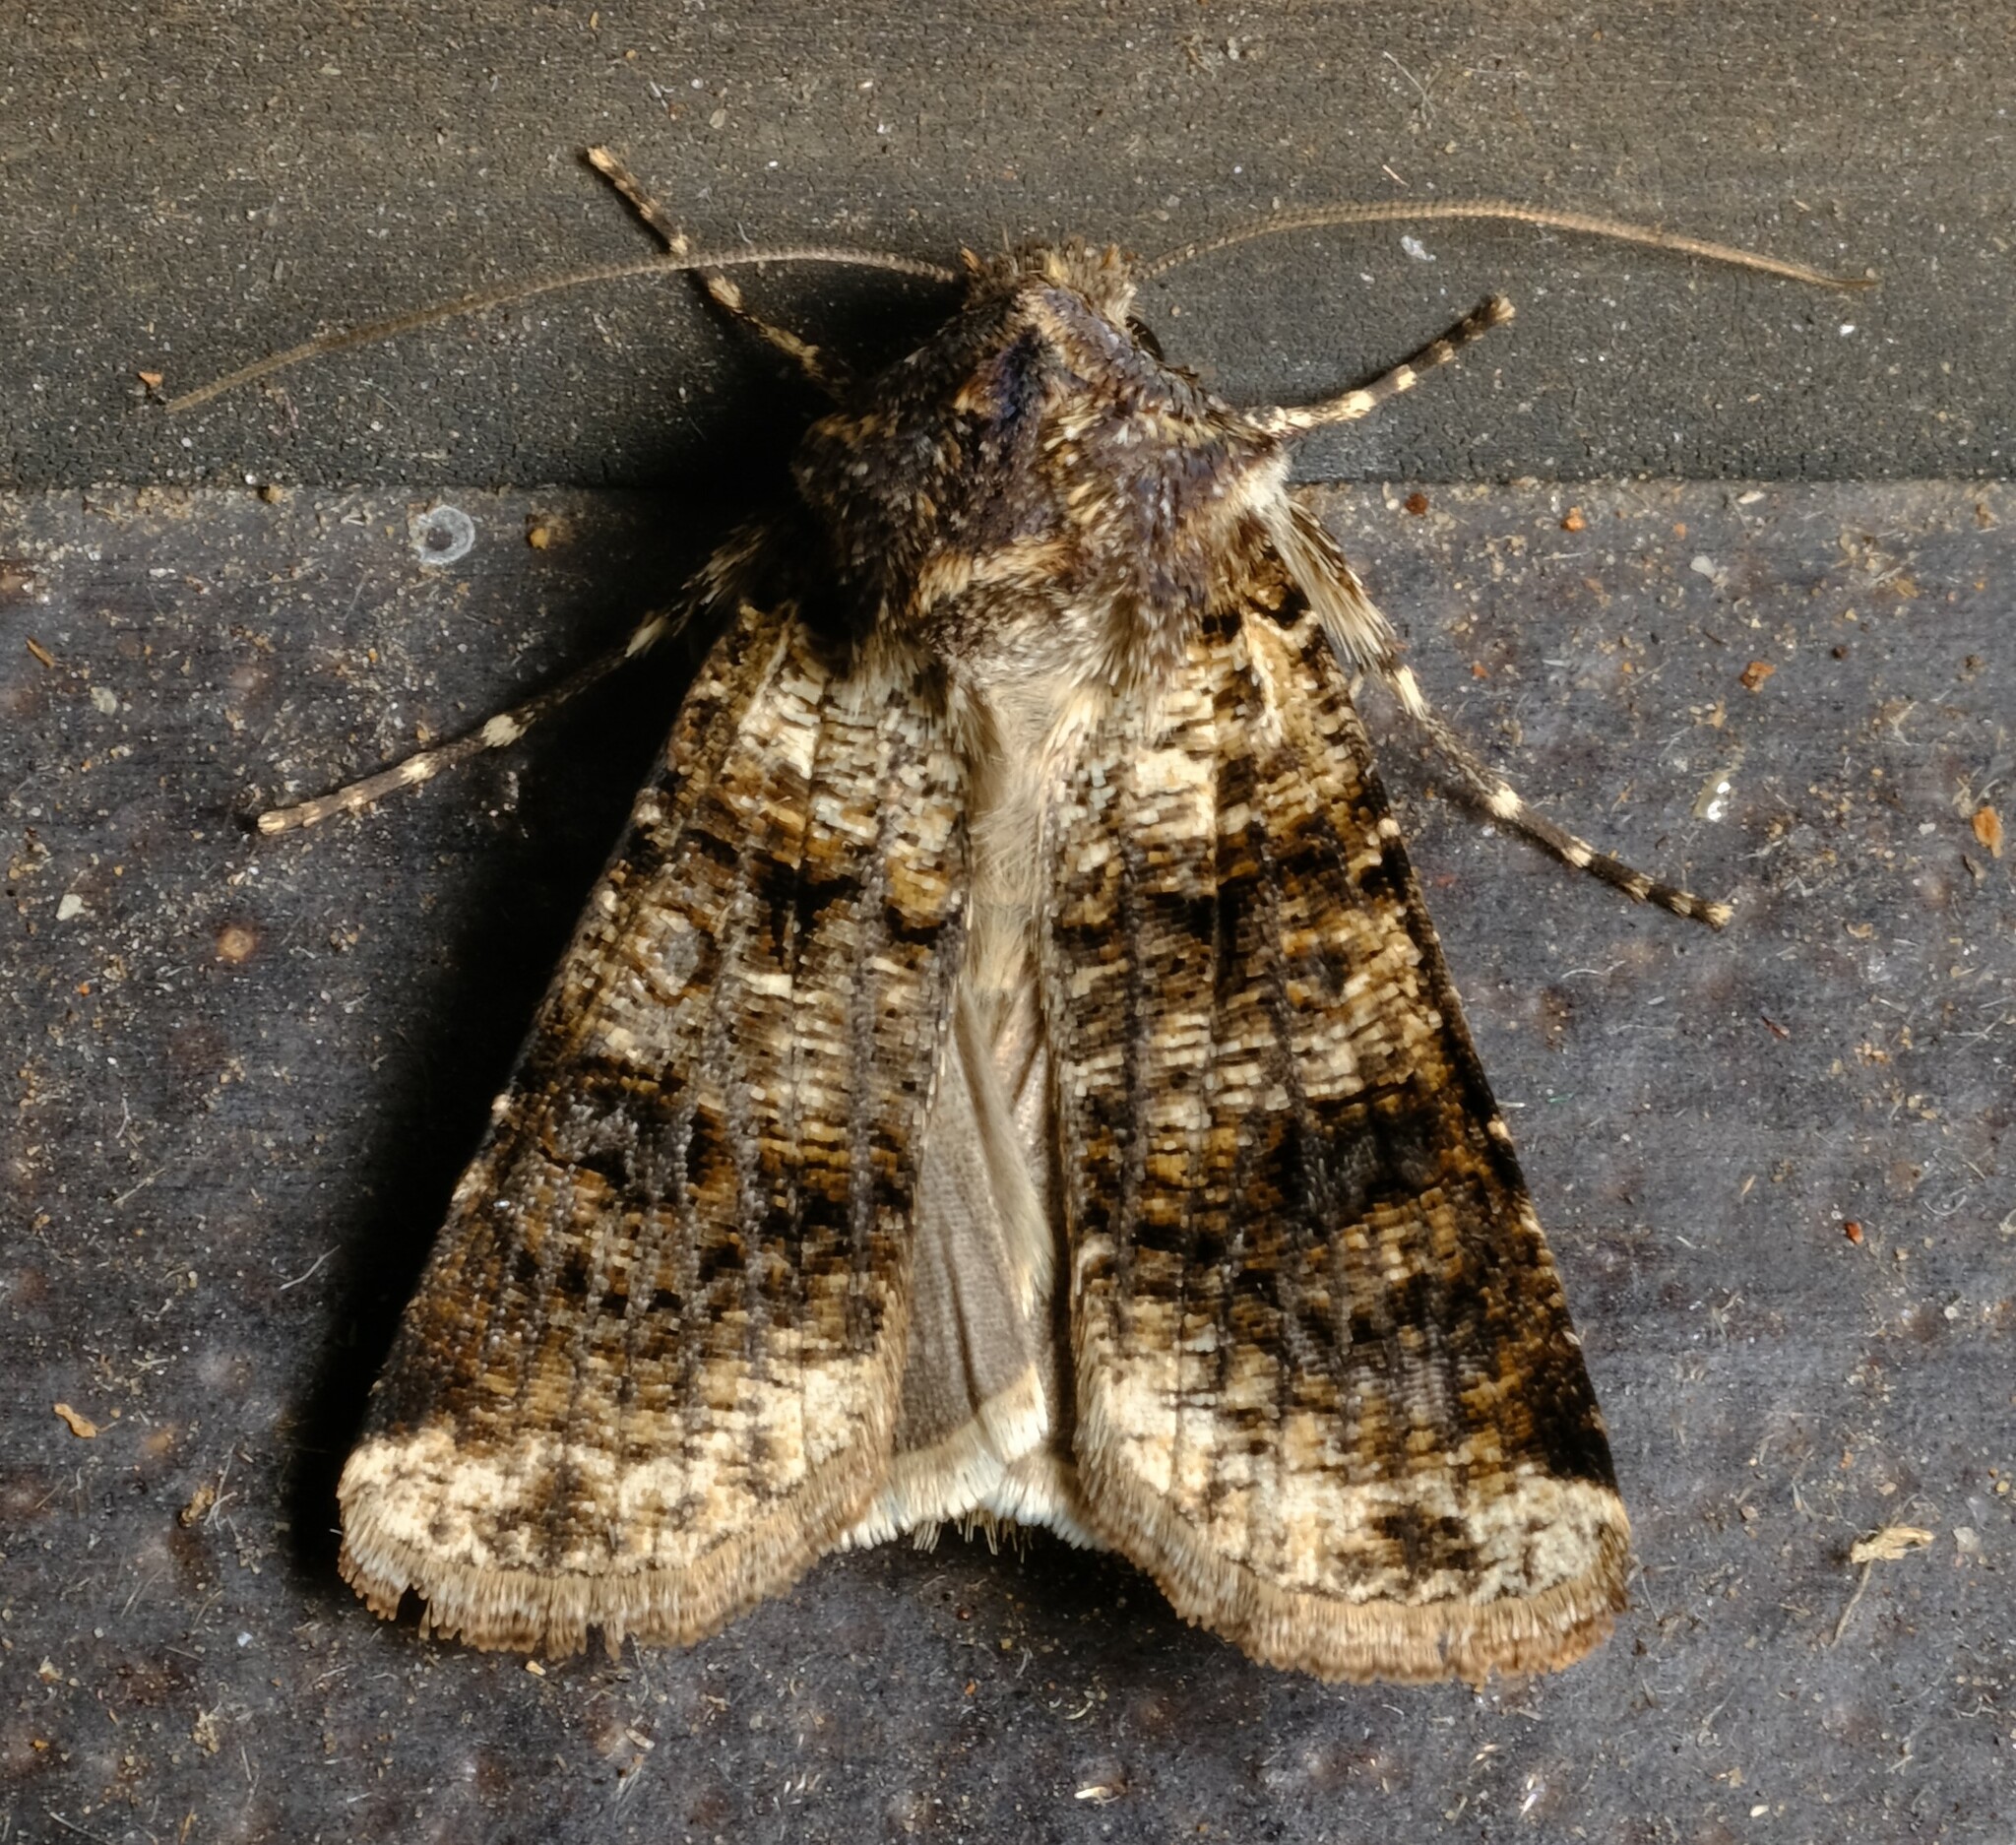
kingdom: Animalia
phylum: Arthropoda
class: Insecta
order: Lepidoptera
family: Noctuidae
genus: Agrotis
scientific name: Agrotis porphyricollis
